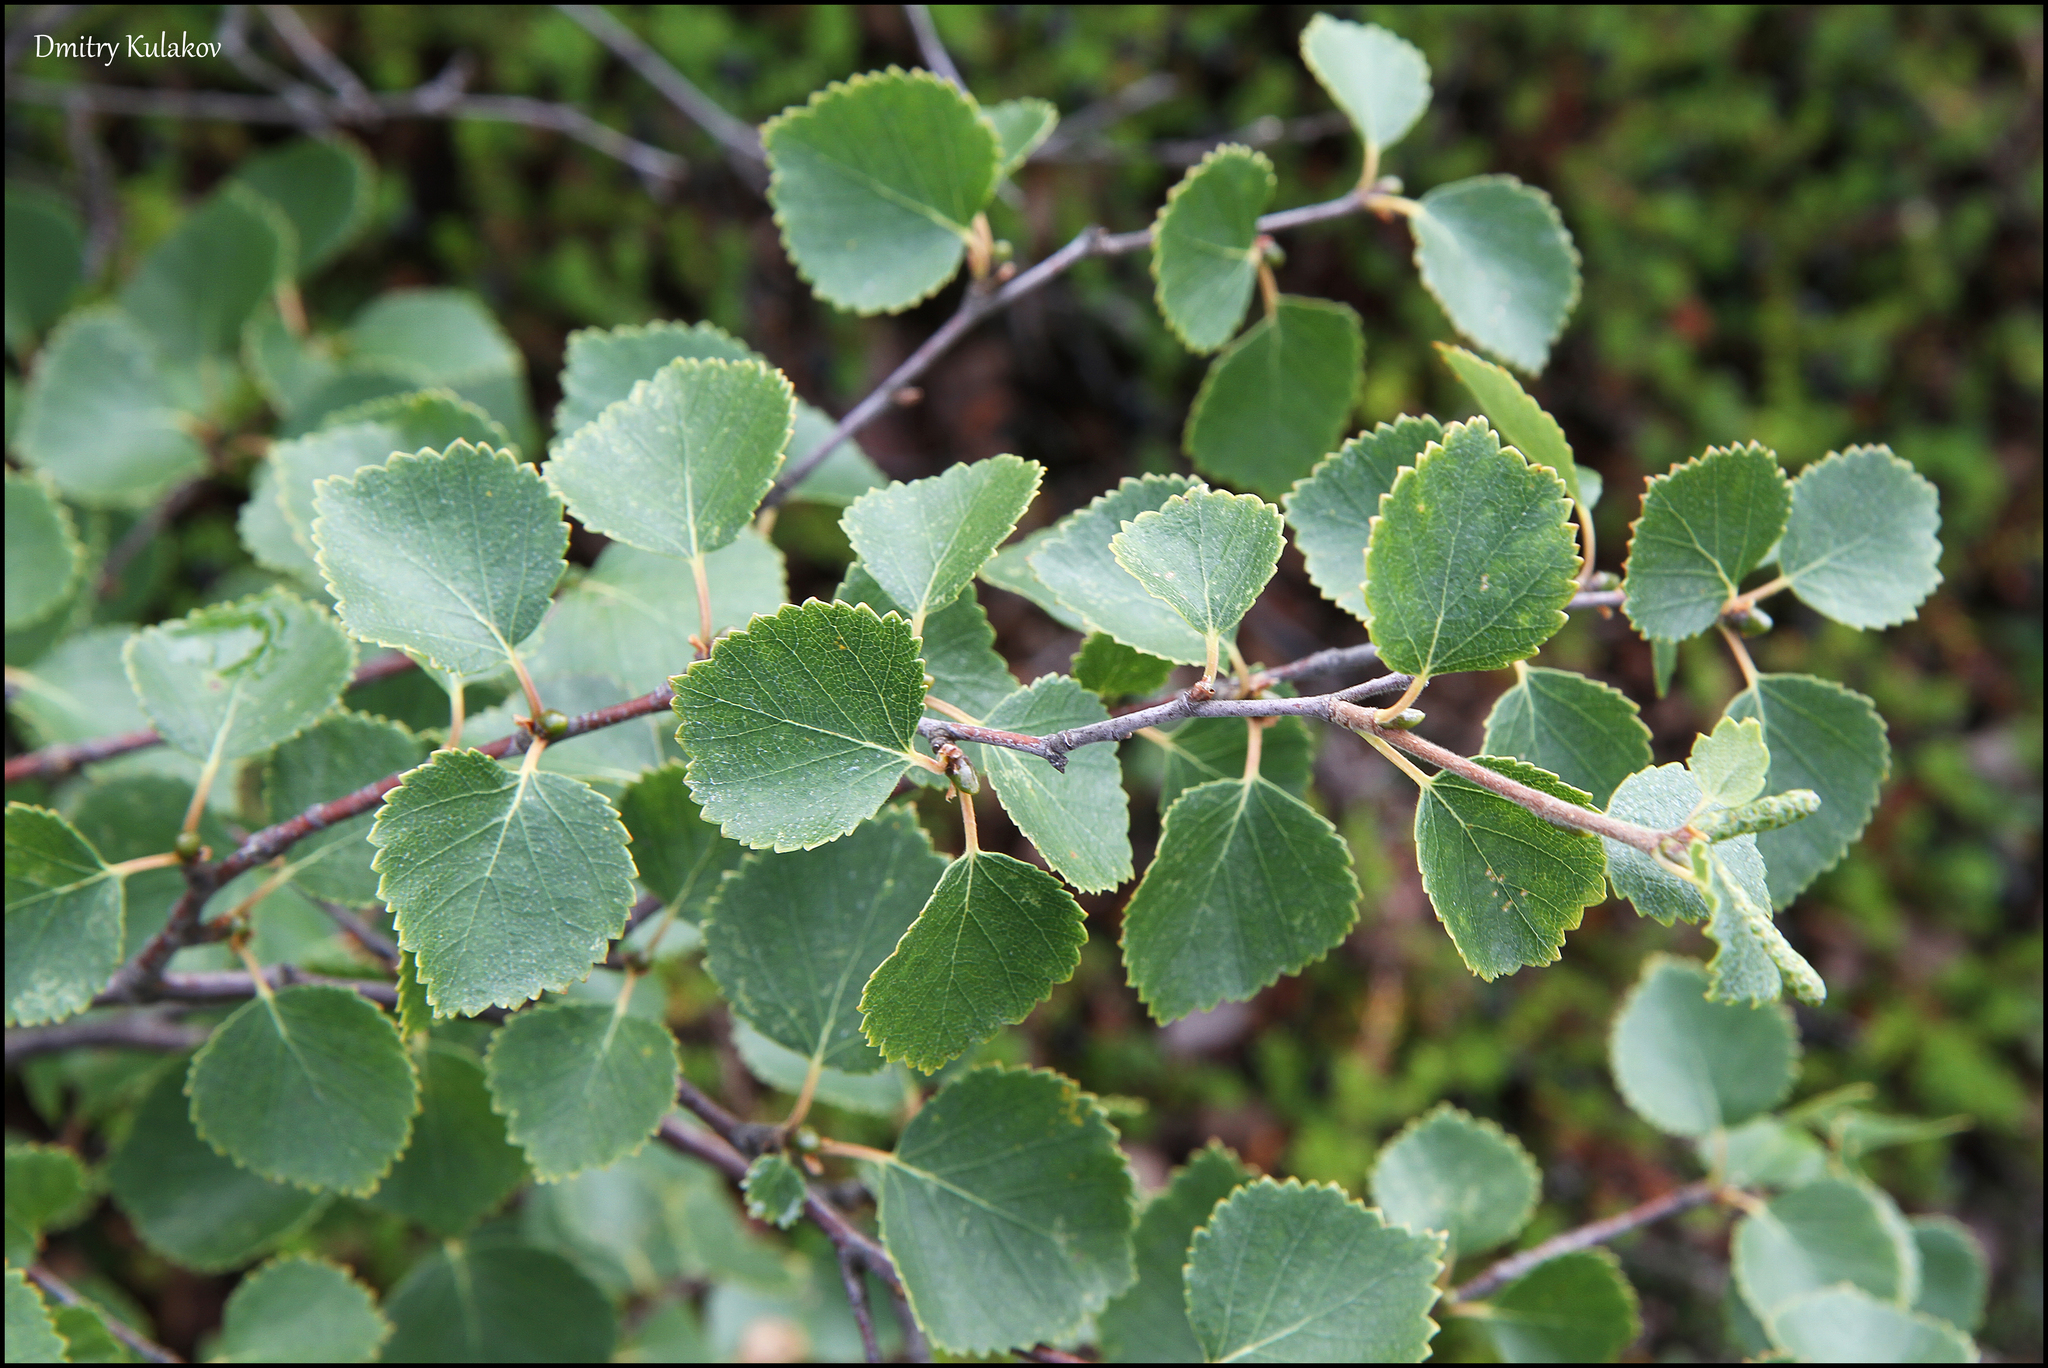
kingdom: Plantae
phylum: Tracheophyta
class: Magnoliopsida
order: Fagales
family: Betulaceae
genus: Betula
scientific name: Betula intermedia
